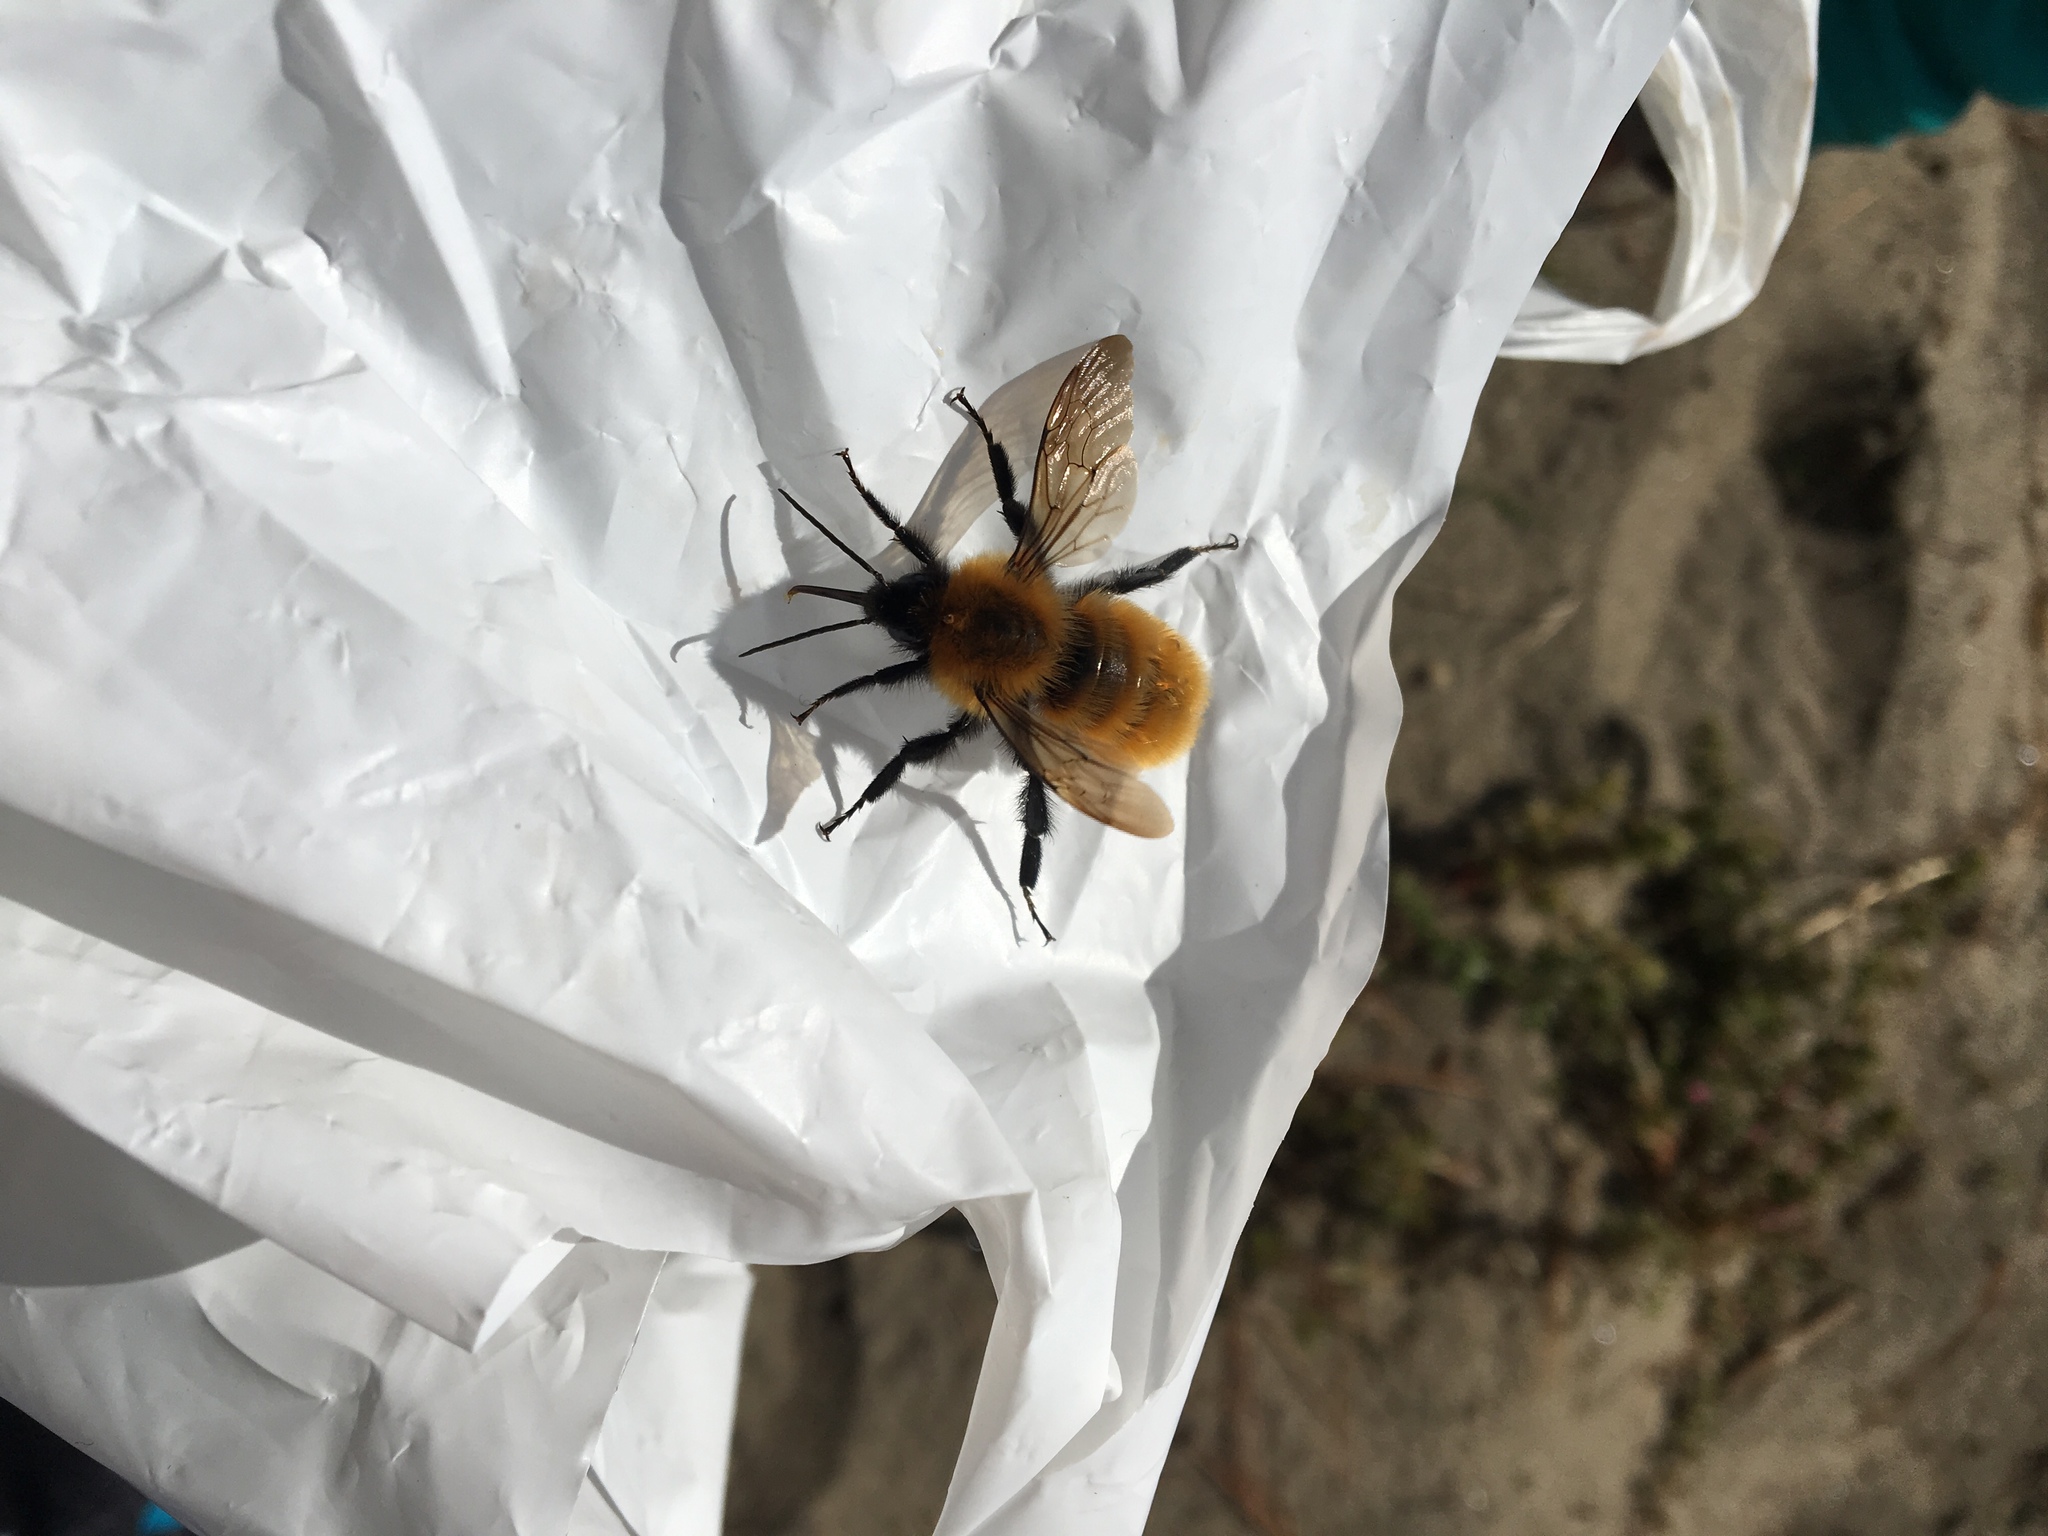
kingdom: Animalia
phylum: Arthropoda
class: Insecta
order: Hymenoptera
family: Apidae
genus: Bombus
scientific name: Bombus dahlbomii
